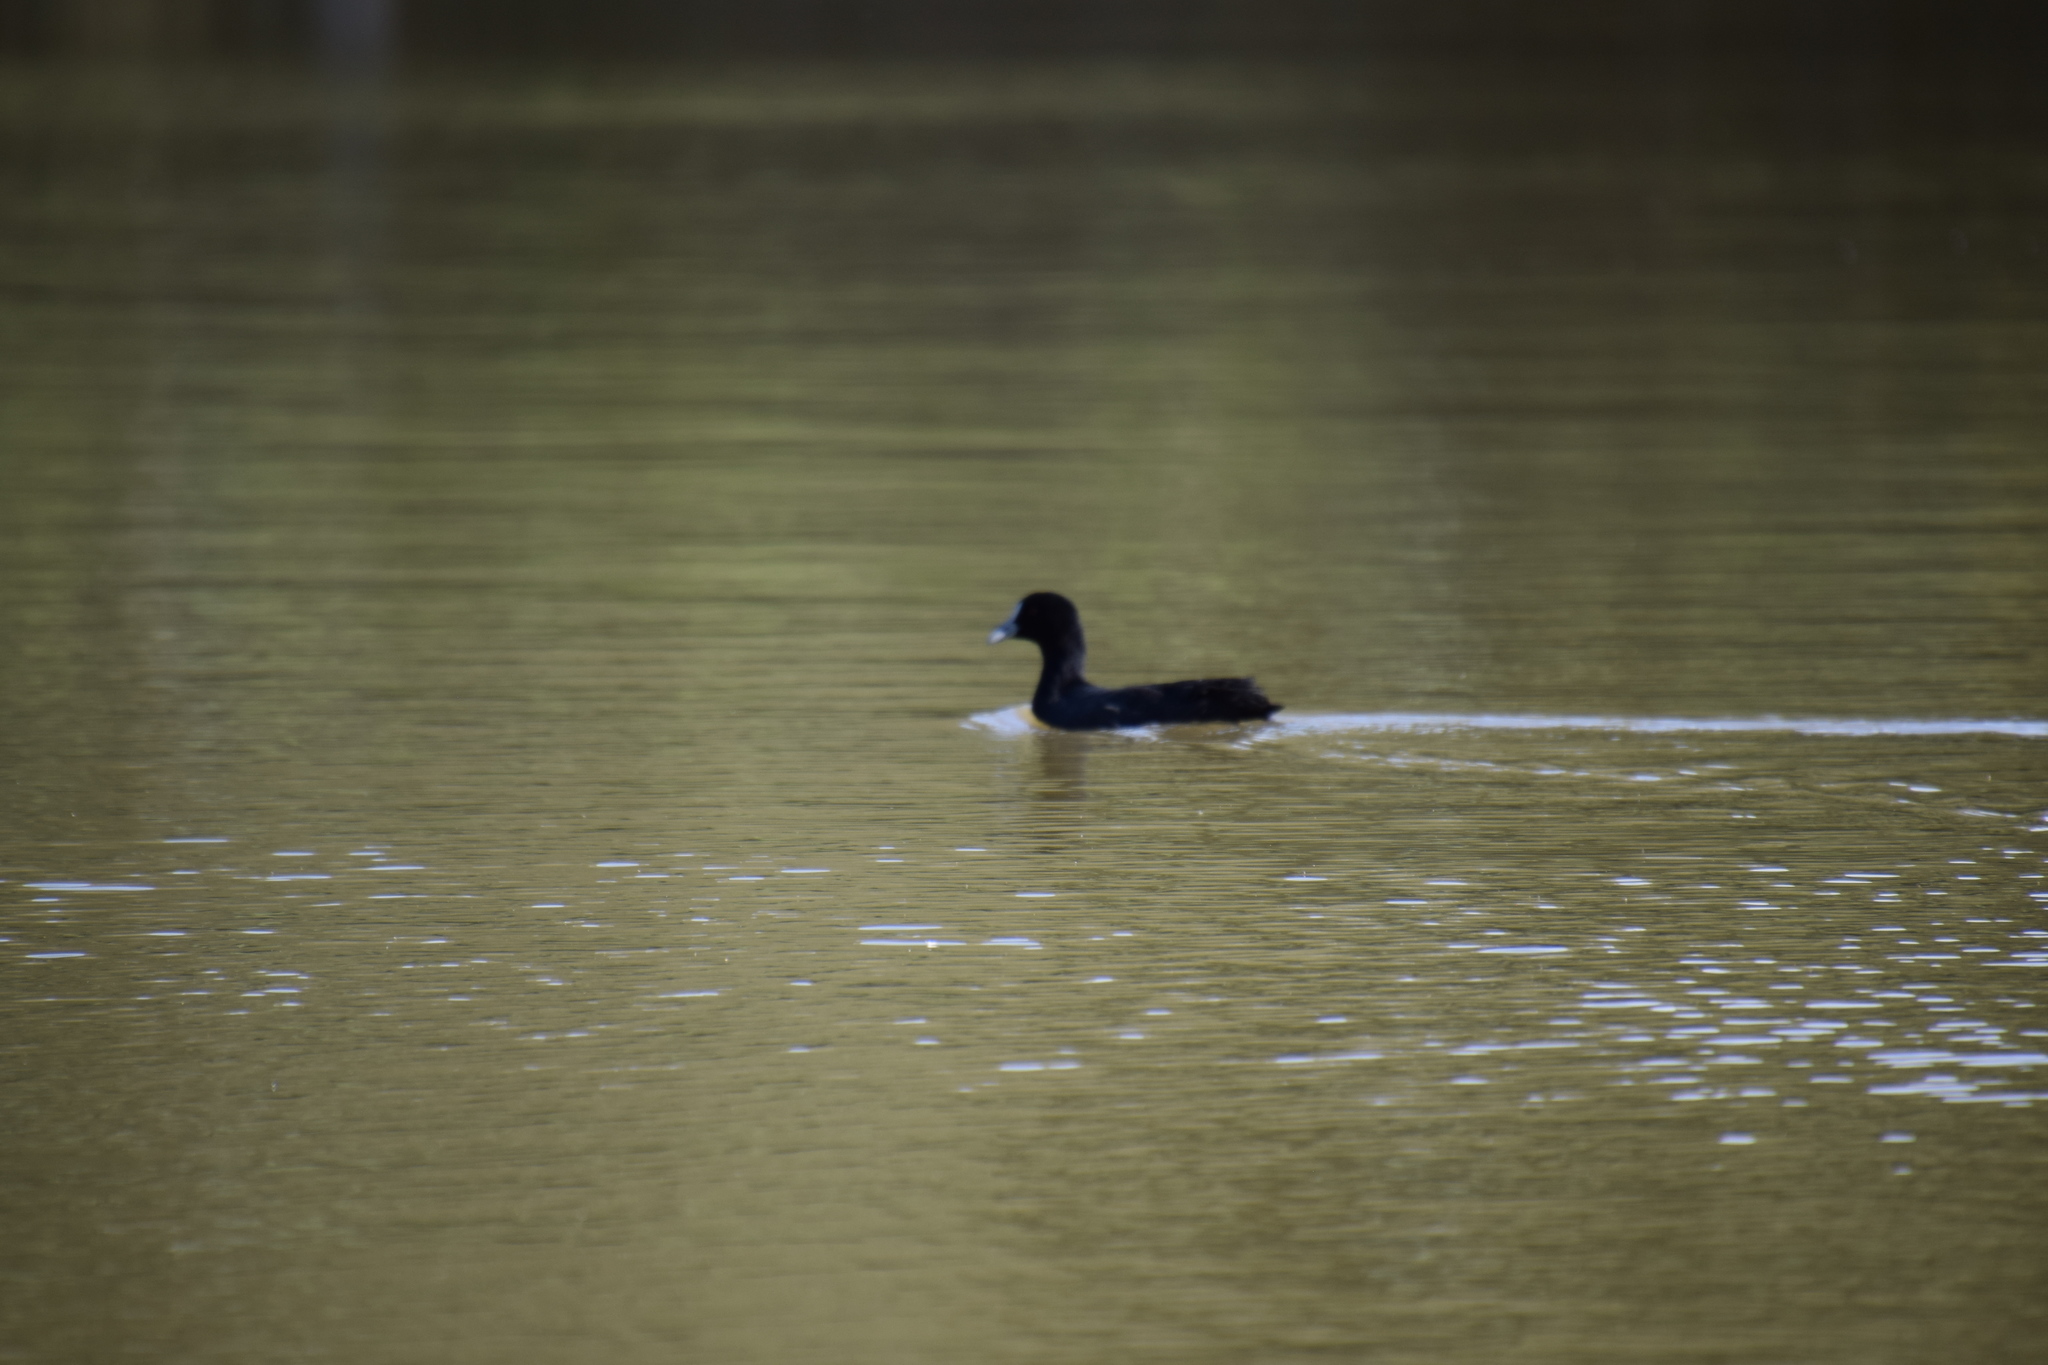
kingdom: Animalia
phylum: Chordata
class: Aves
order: Gruiformes
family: Rallidae
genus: Fulica
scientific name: Fulica atra
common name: Eurasian coot
